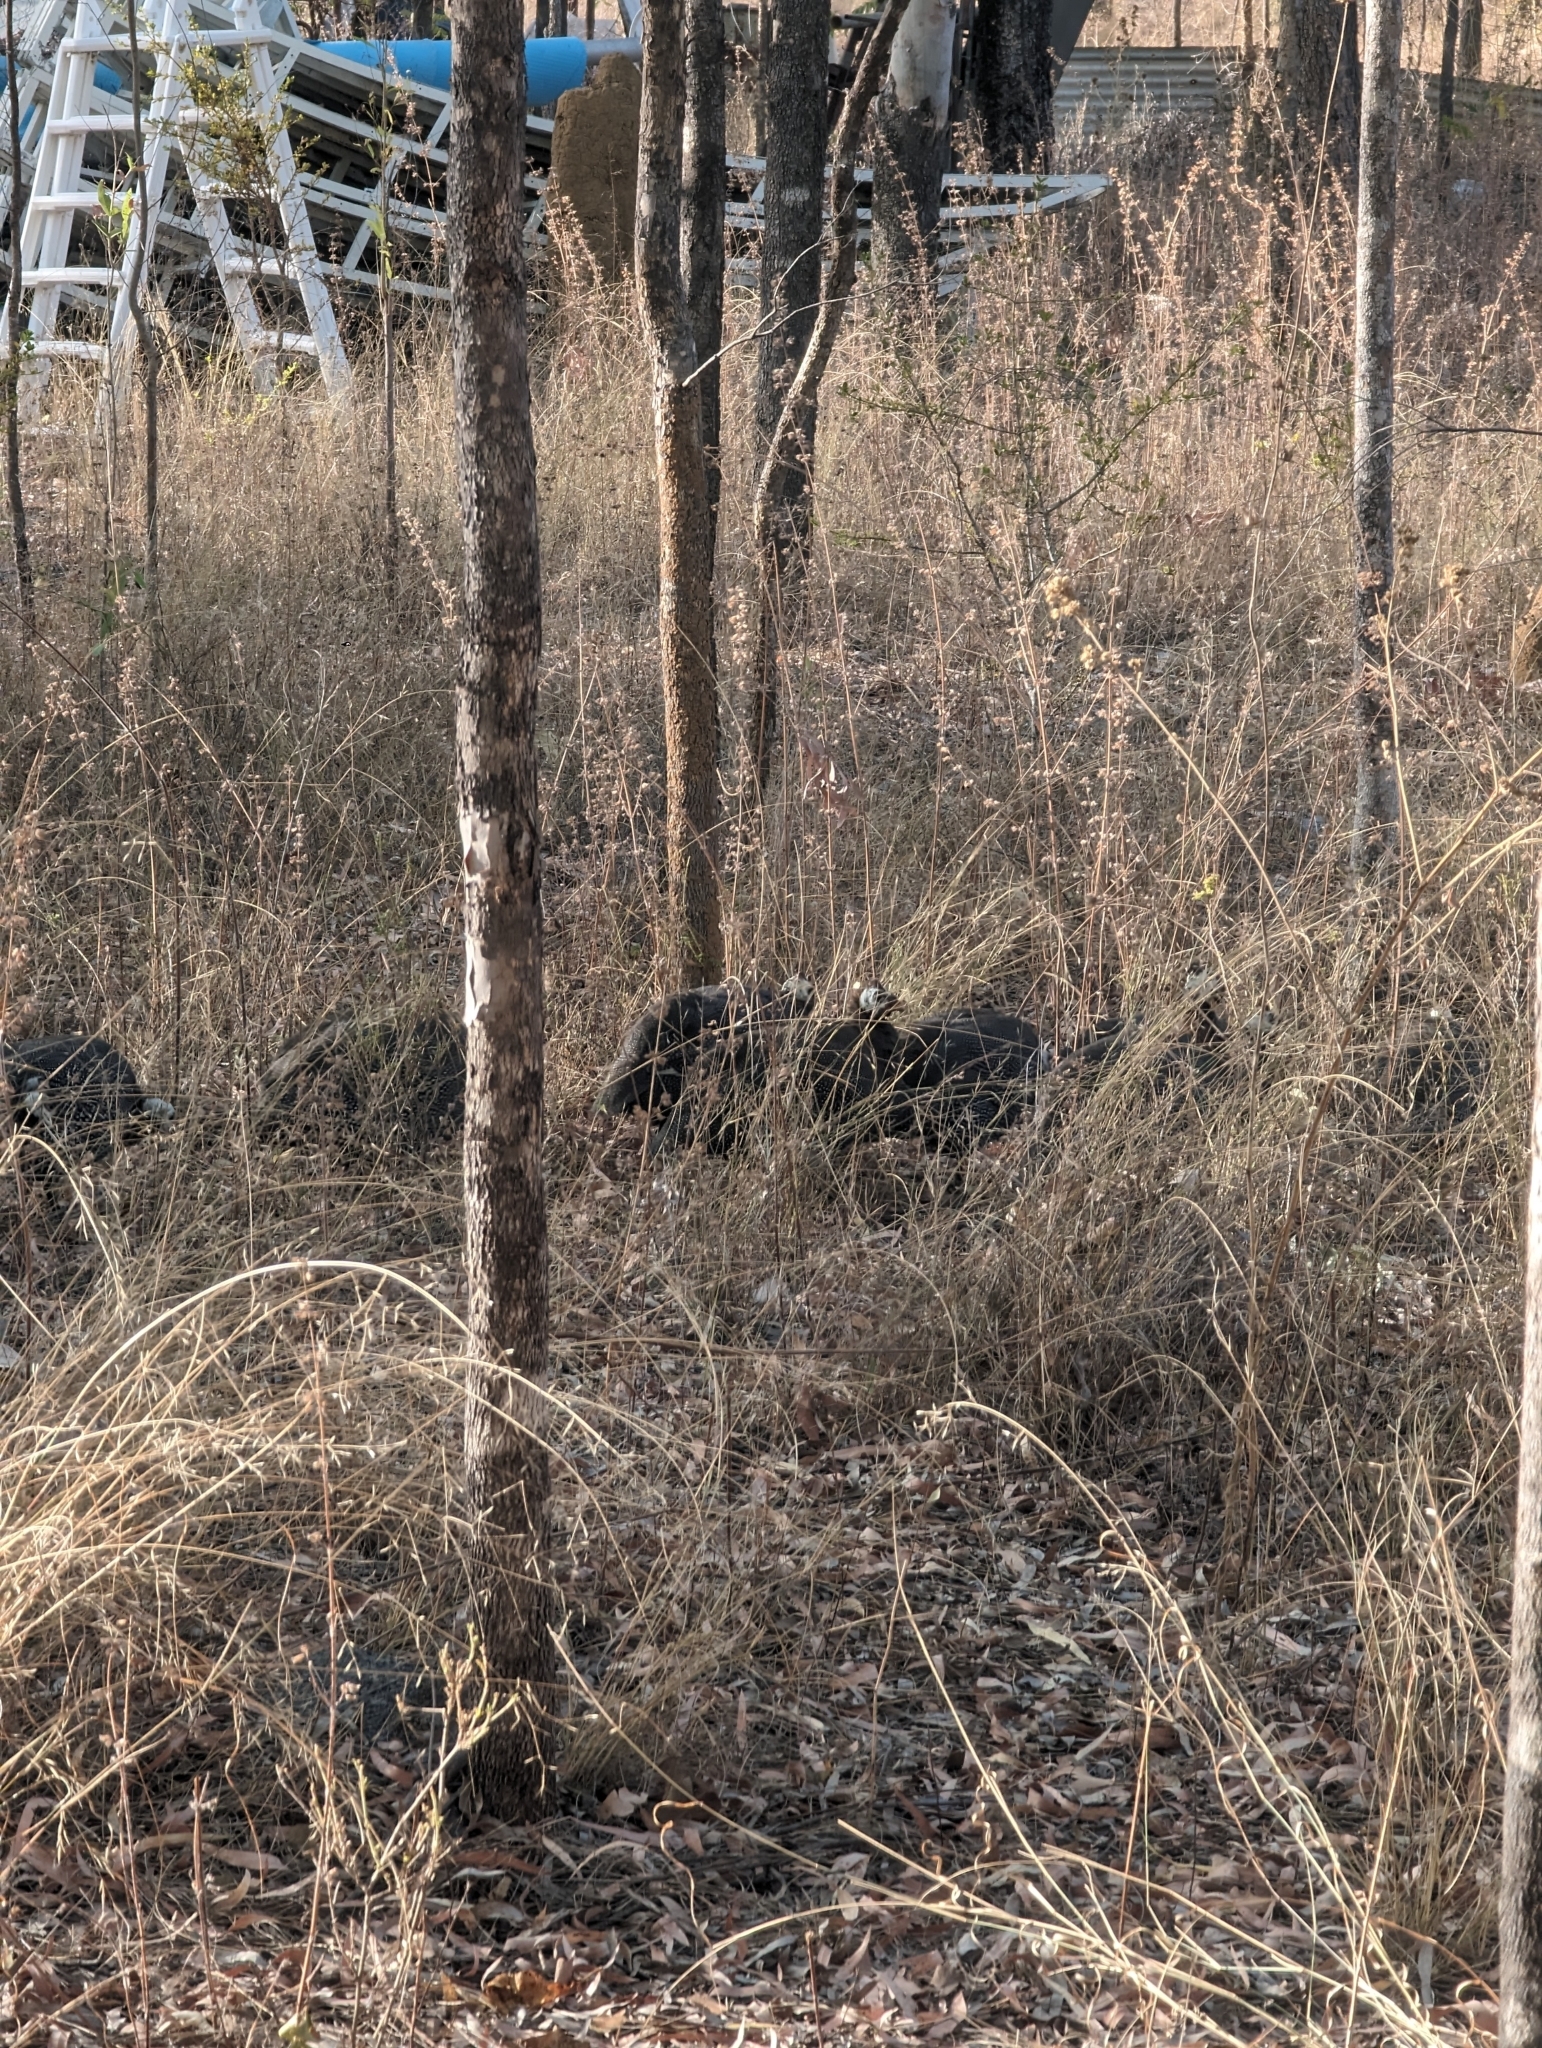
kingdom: Animalia
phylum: Chordata
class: Aves
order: Galliformes
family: Numididae
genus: Numida
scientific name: Numida meleagris
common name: Helmeted guineafowl
